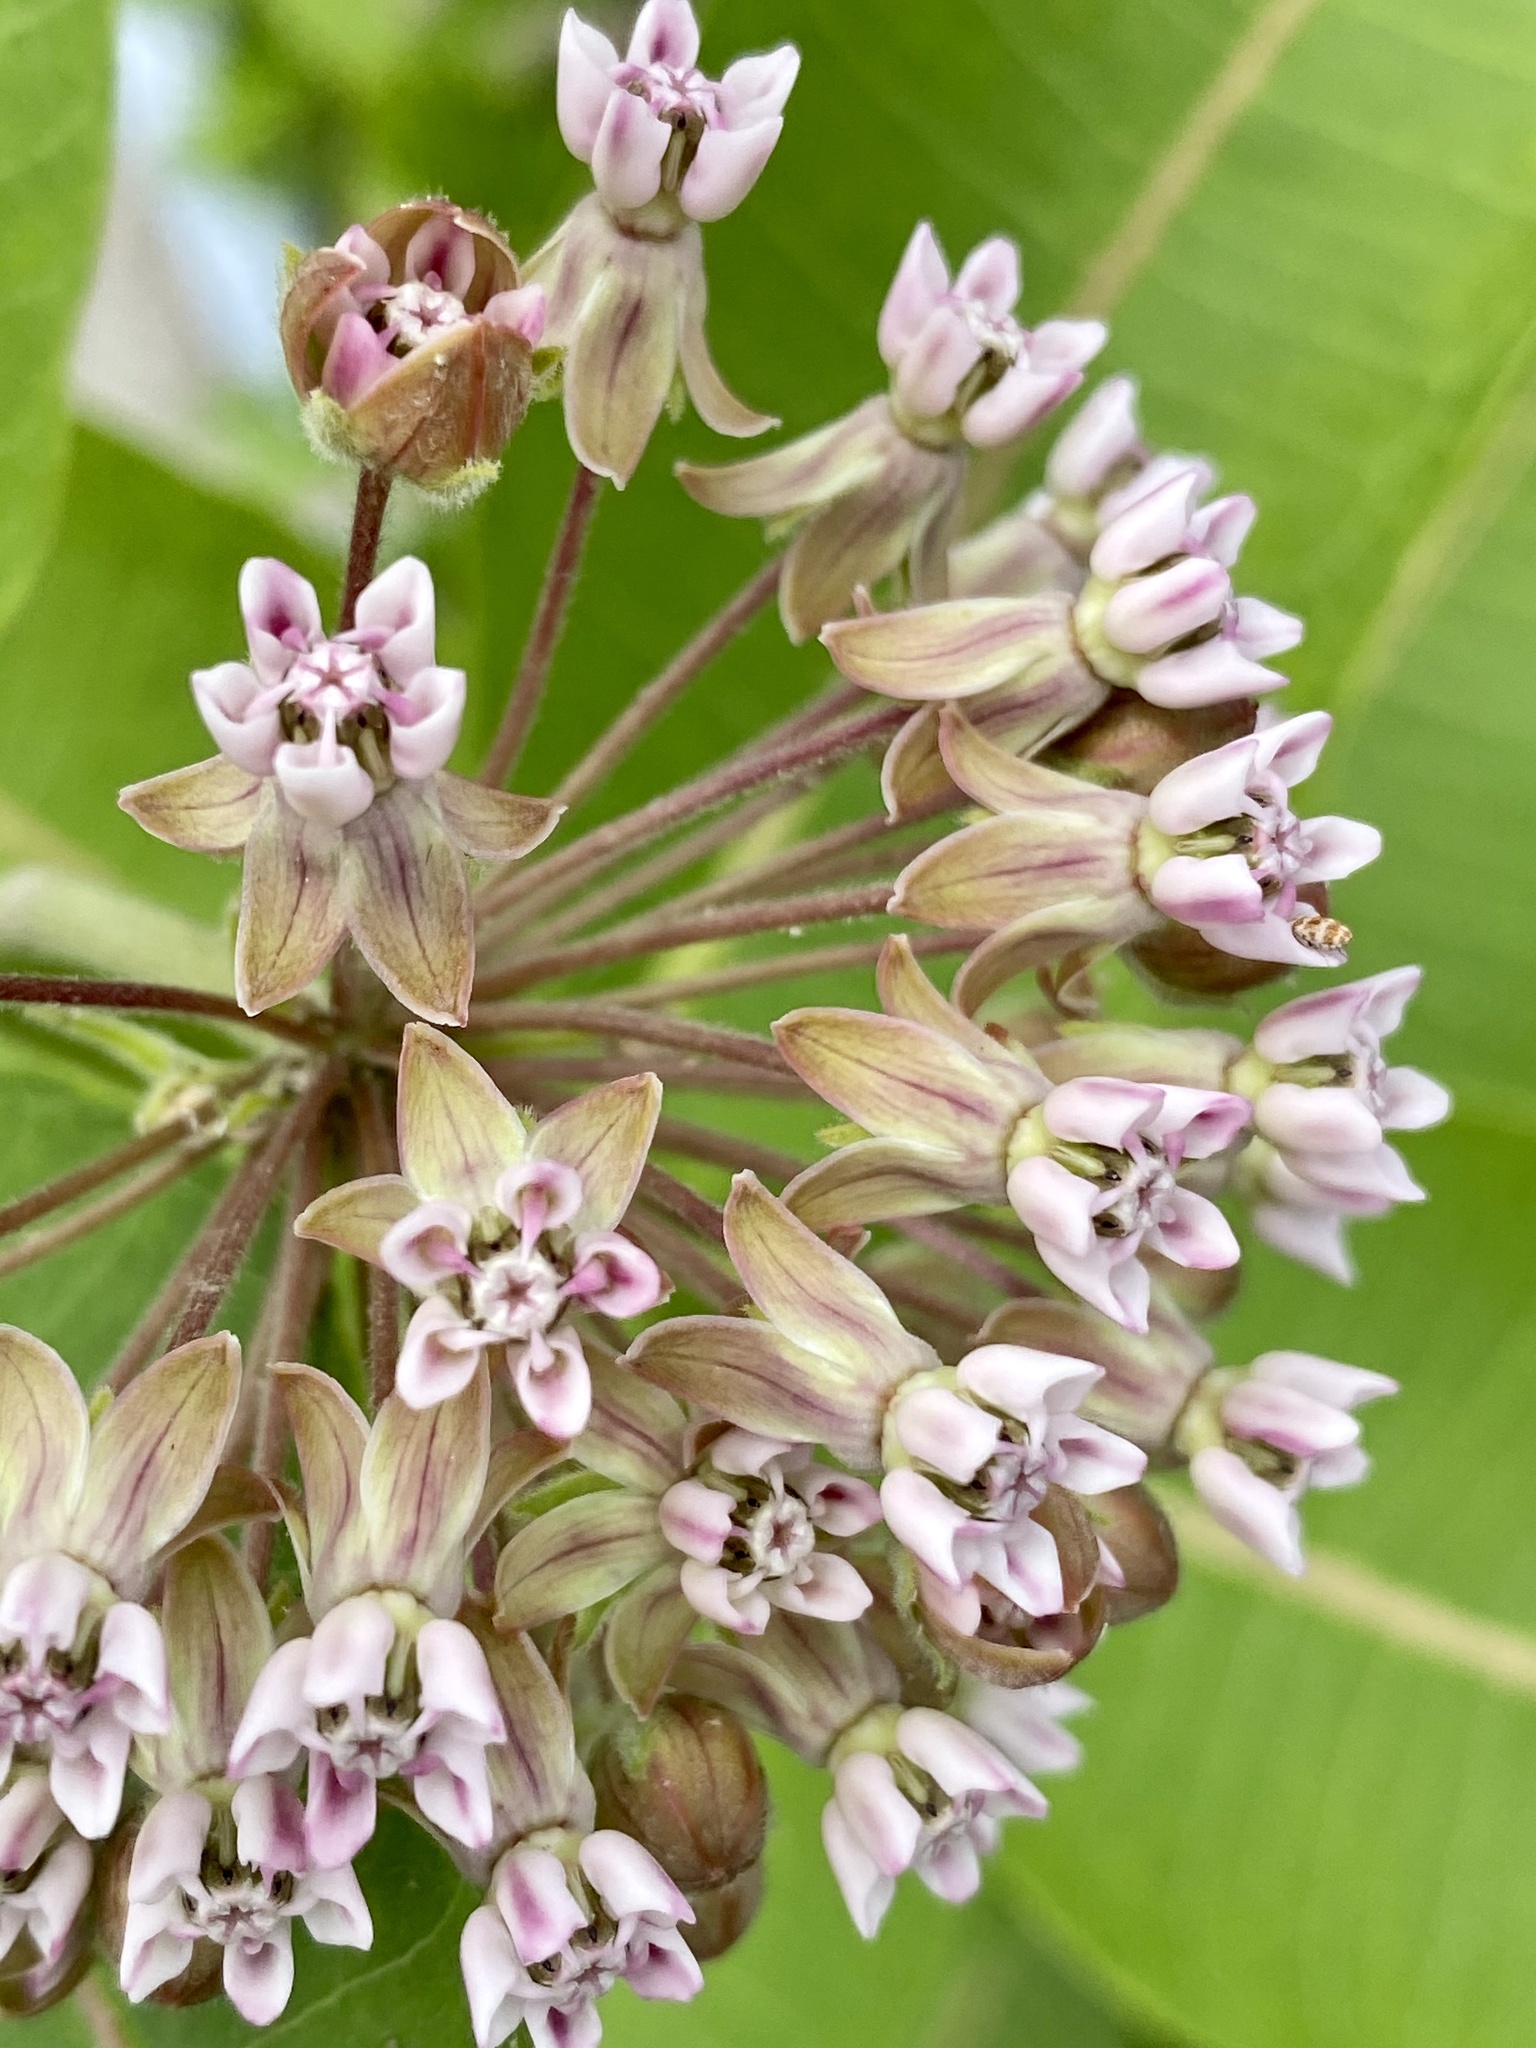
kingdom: Plantae
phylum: Tracheophyta
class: Magnoliopsida
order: Gentianales
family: Apocynaceae
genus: Asclepias
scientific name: Asclepias syriaca
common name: Common milkweed
